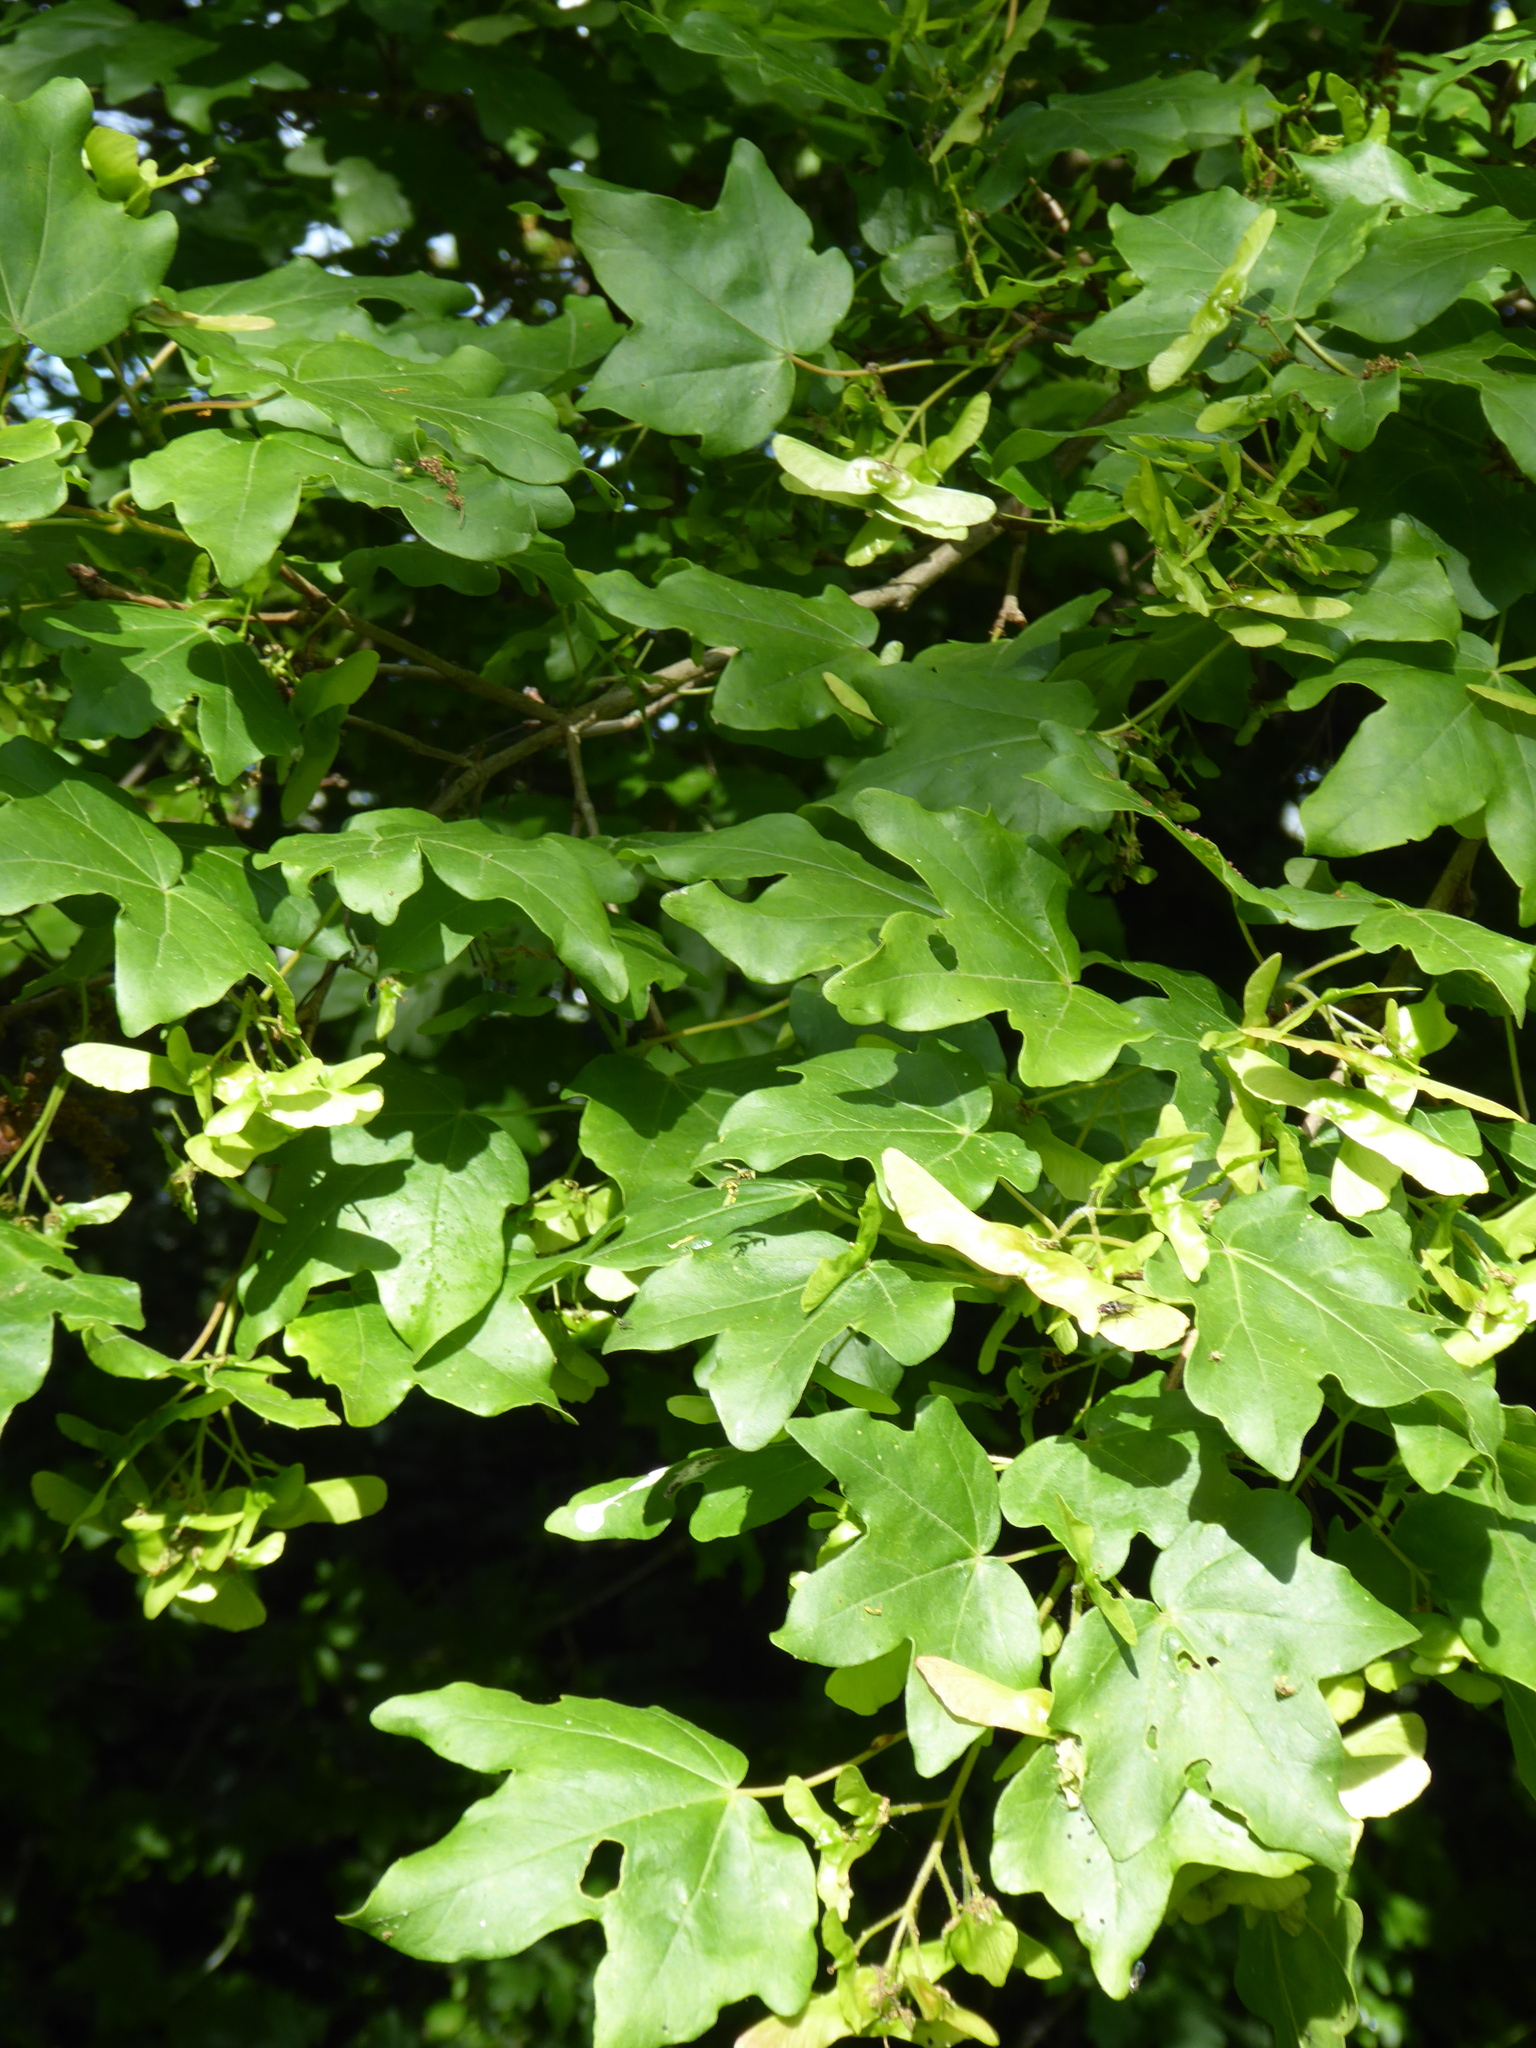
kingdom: Plantae
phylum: Tracheophyta
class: Magnoliopsida
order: Sapindales
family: Sapindaceae
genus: Acer
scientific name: Acer campestre
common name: Field maple
